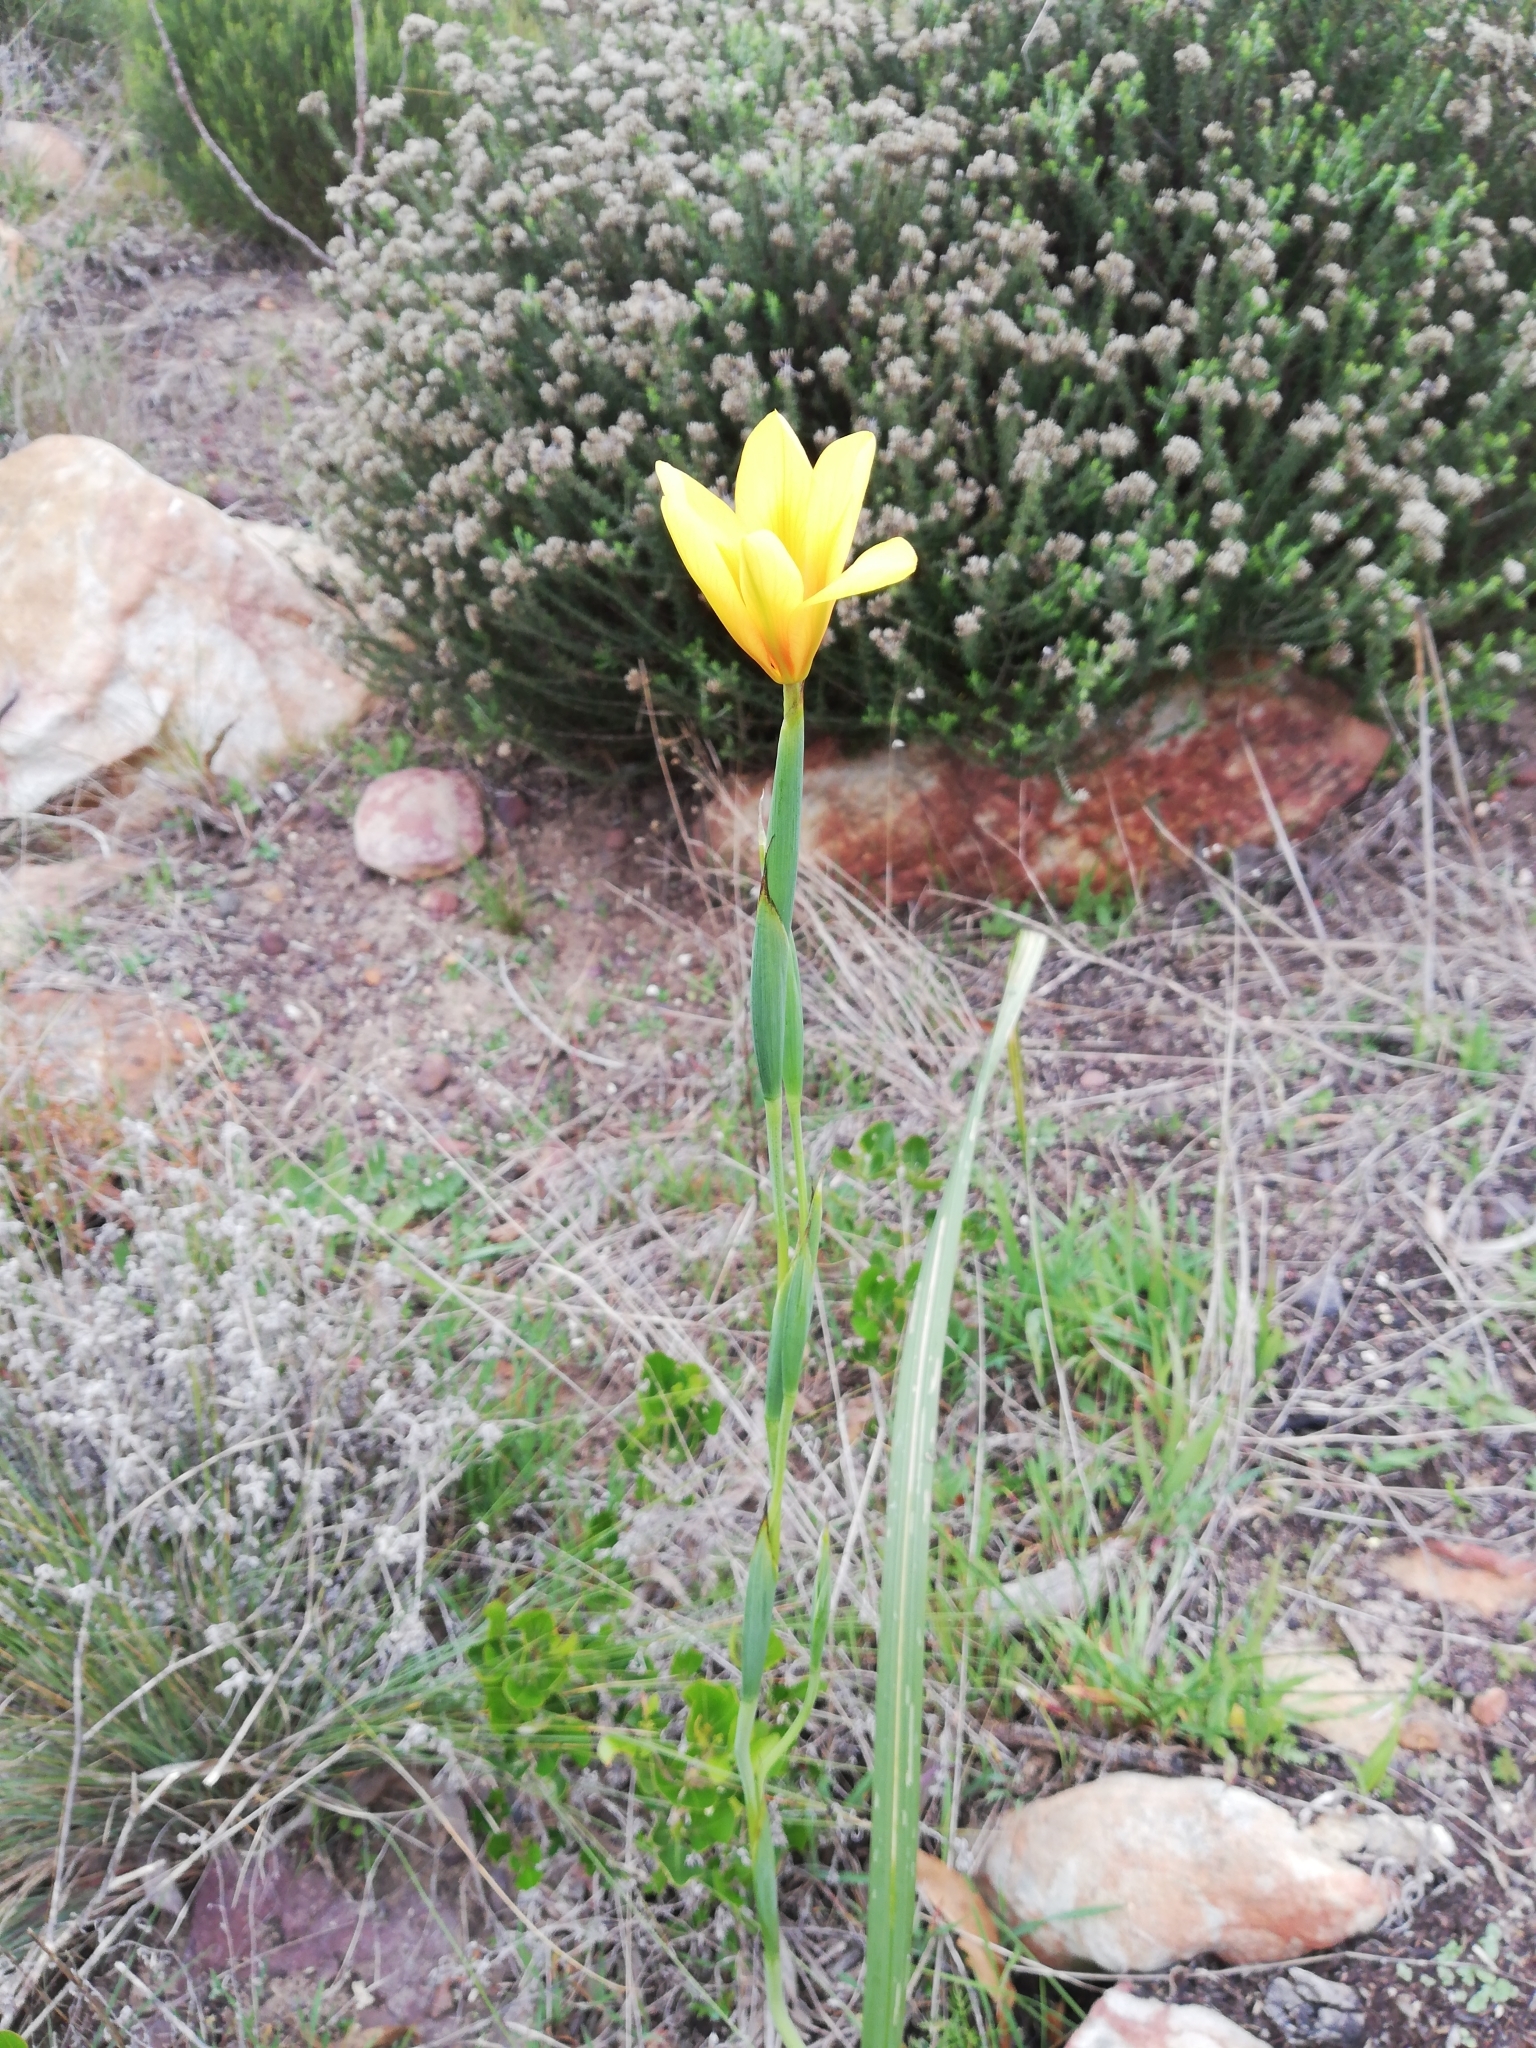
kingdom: Plantae
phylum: Tracheophyta
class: Liliopsida
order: Asparagales
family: Iridaceae
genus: Moraea
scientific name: Moraea ochroleuca
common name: Red tulp
